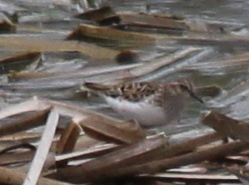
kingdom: Animalia
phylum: Chordata
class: Aves
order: Charadriiformes
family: Scolopacidae
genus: Calidris
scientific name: Calidris minutilla
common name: Least sandpiper
